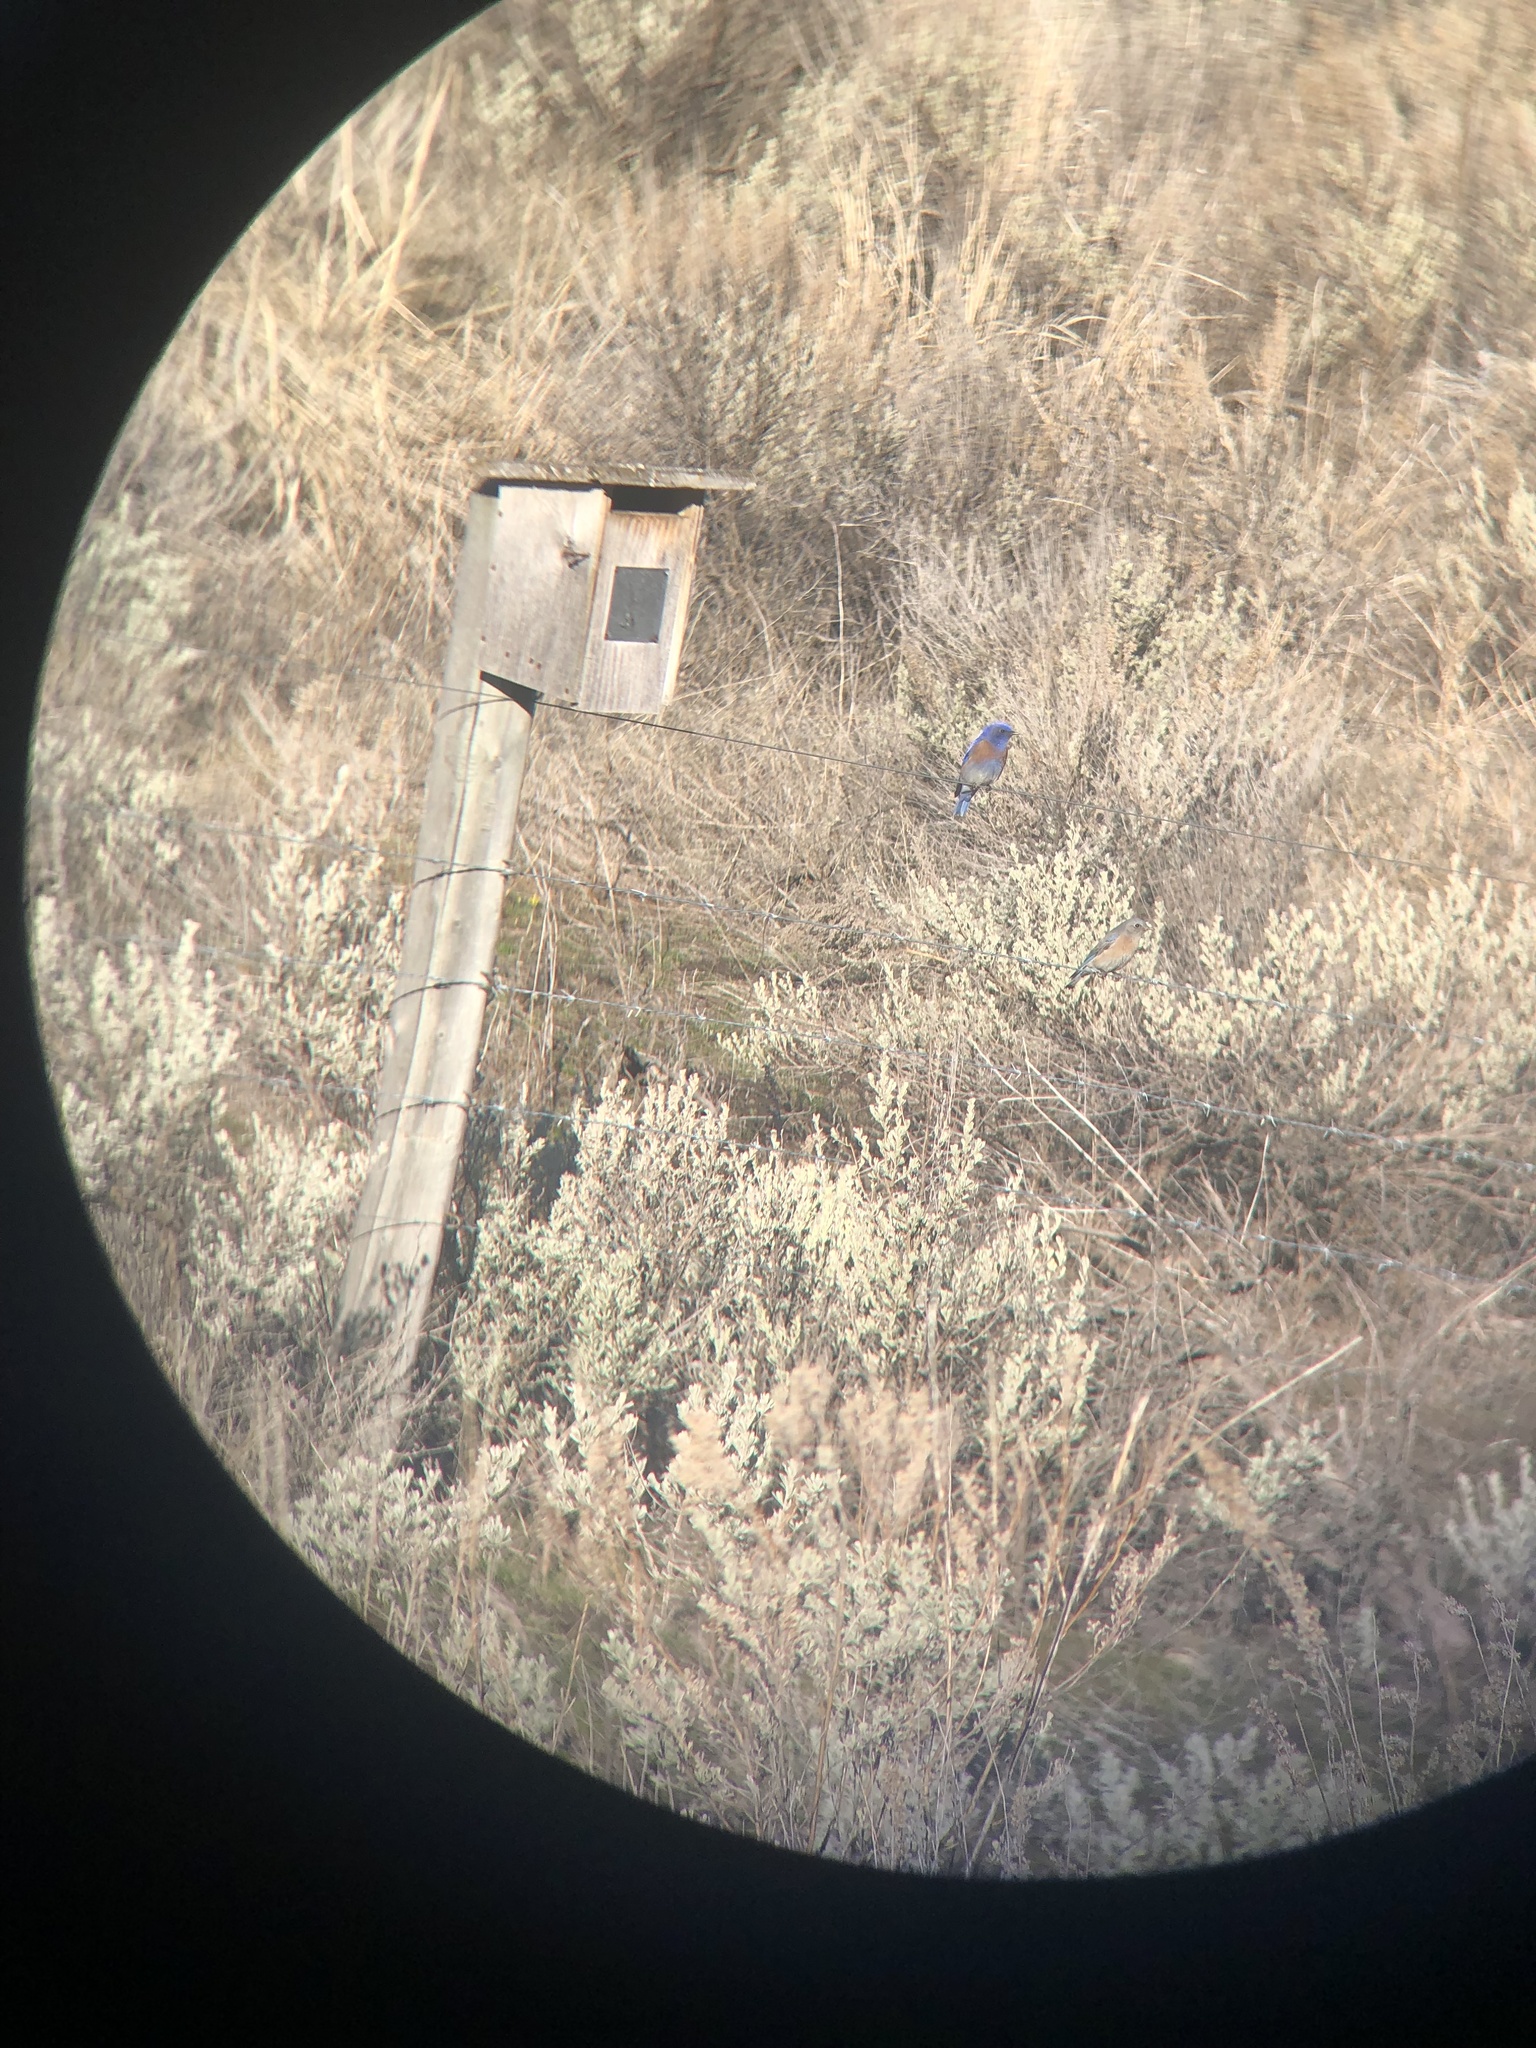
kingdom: Animalia
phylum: Chordata
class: Aves
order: Passeriformes
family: Turdidae
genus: Sialia
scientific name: Sialia mexicana
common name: Western bluebird
